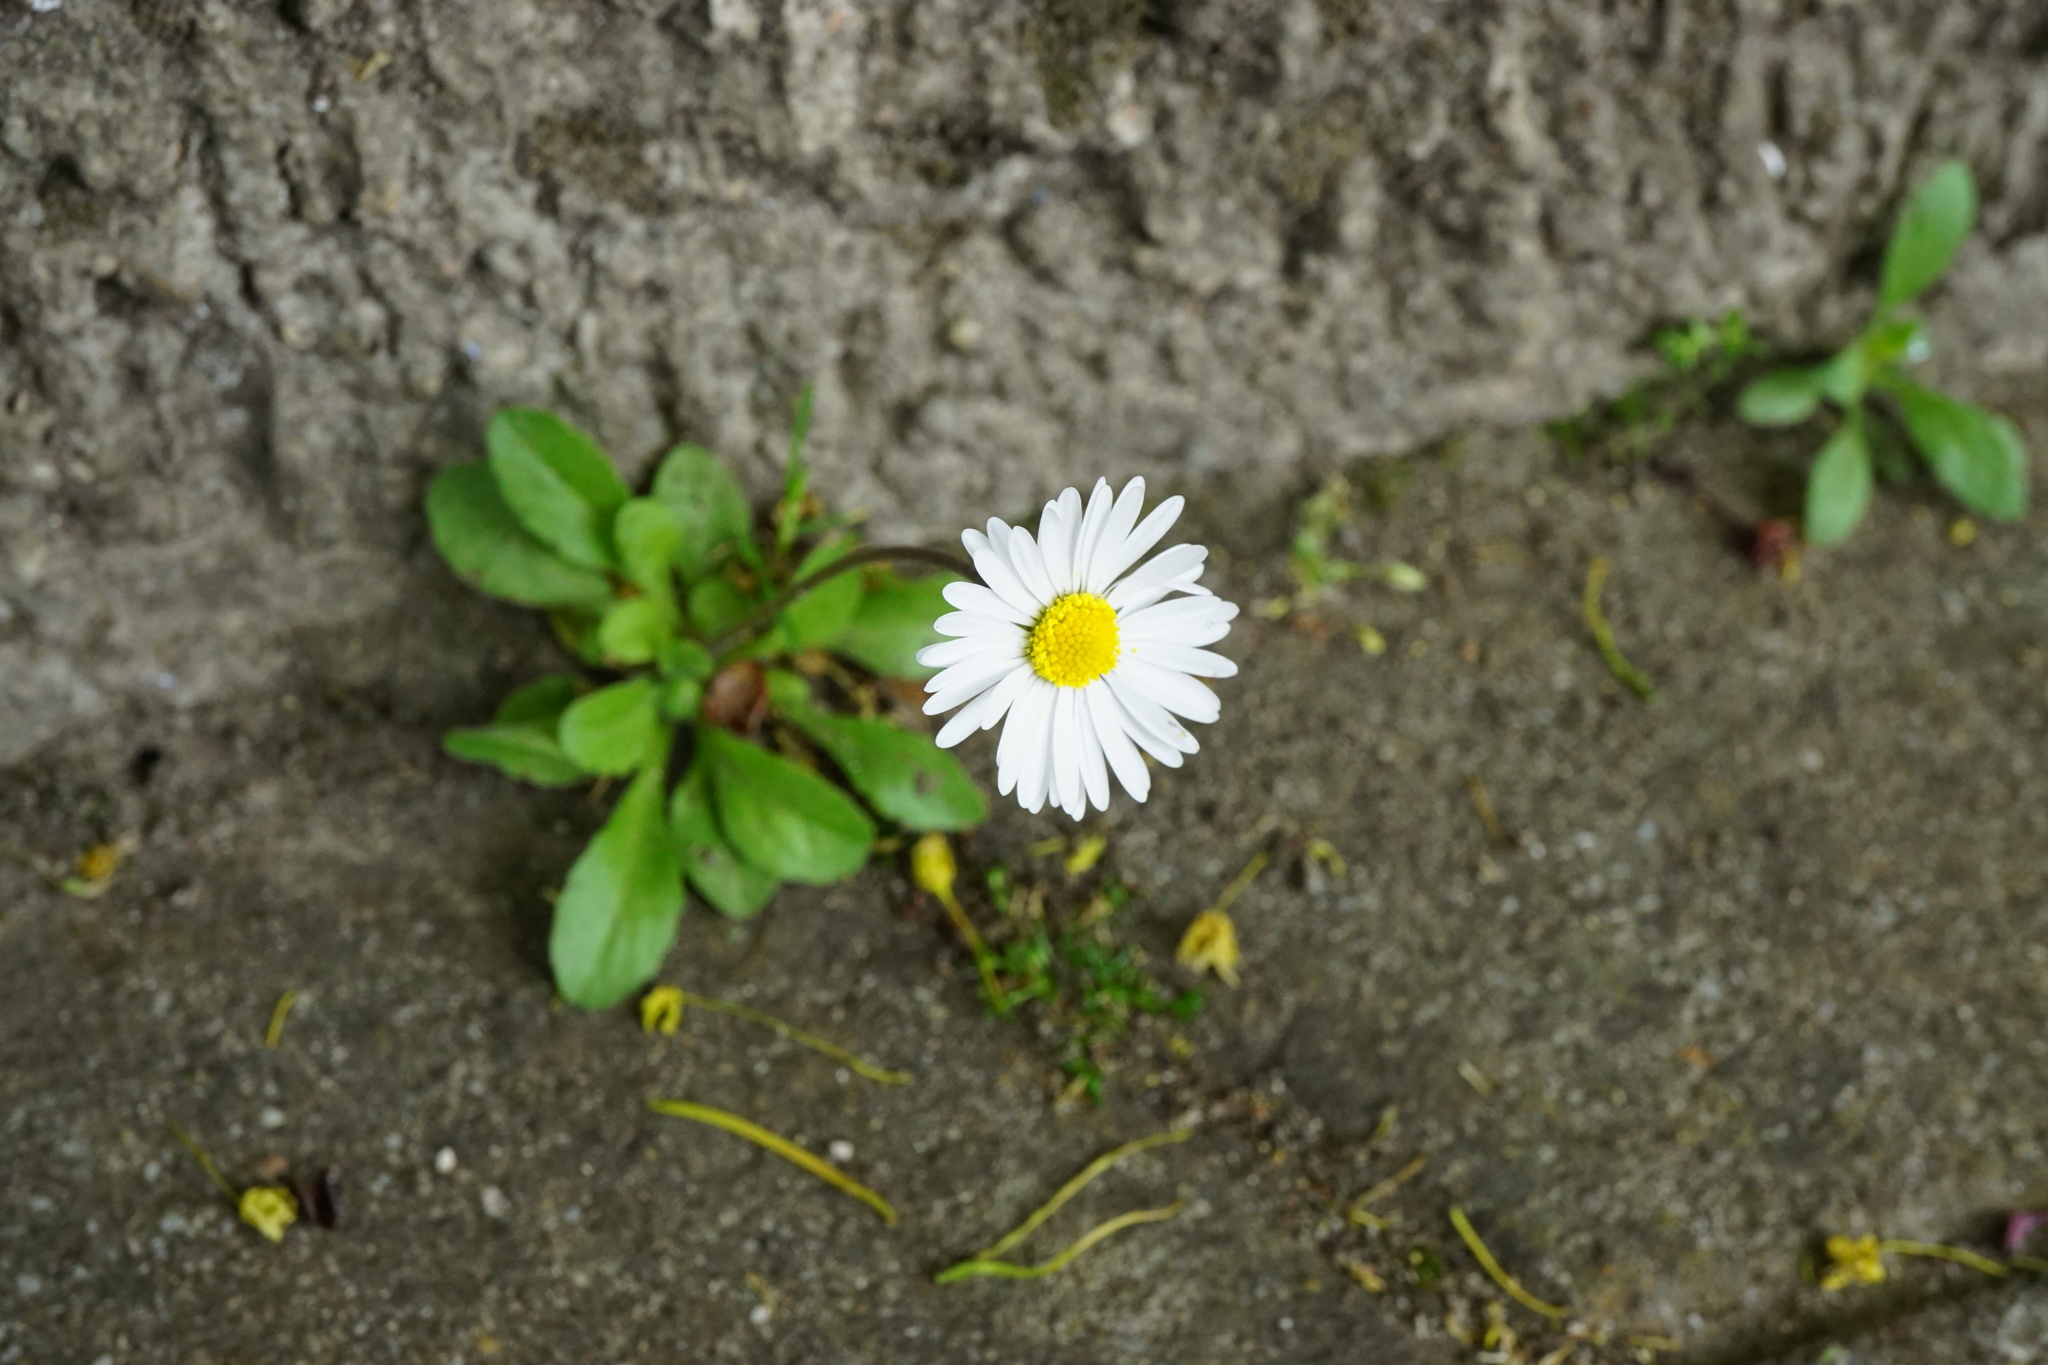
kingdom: Plantae
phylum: Tracheophyta
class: Magnoliopsida
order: Asterales
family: Asteraceae
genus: Bellis
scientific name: Bellis perennis
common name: Lawndaisy
